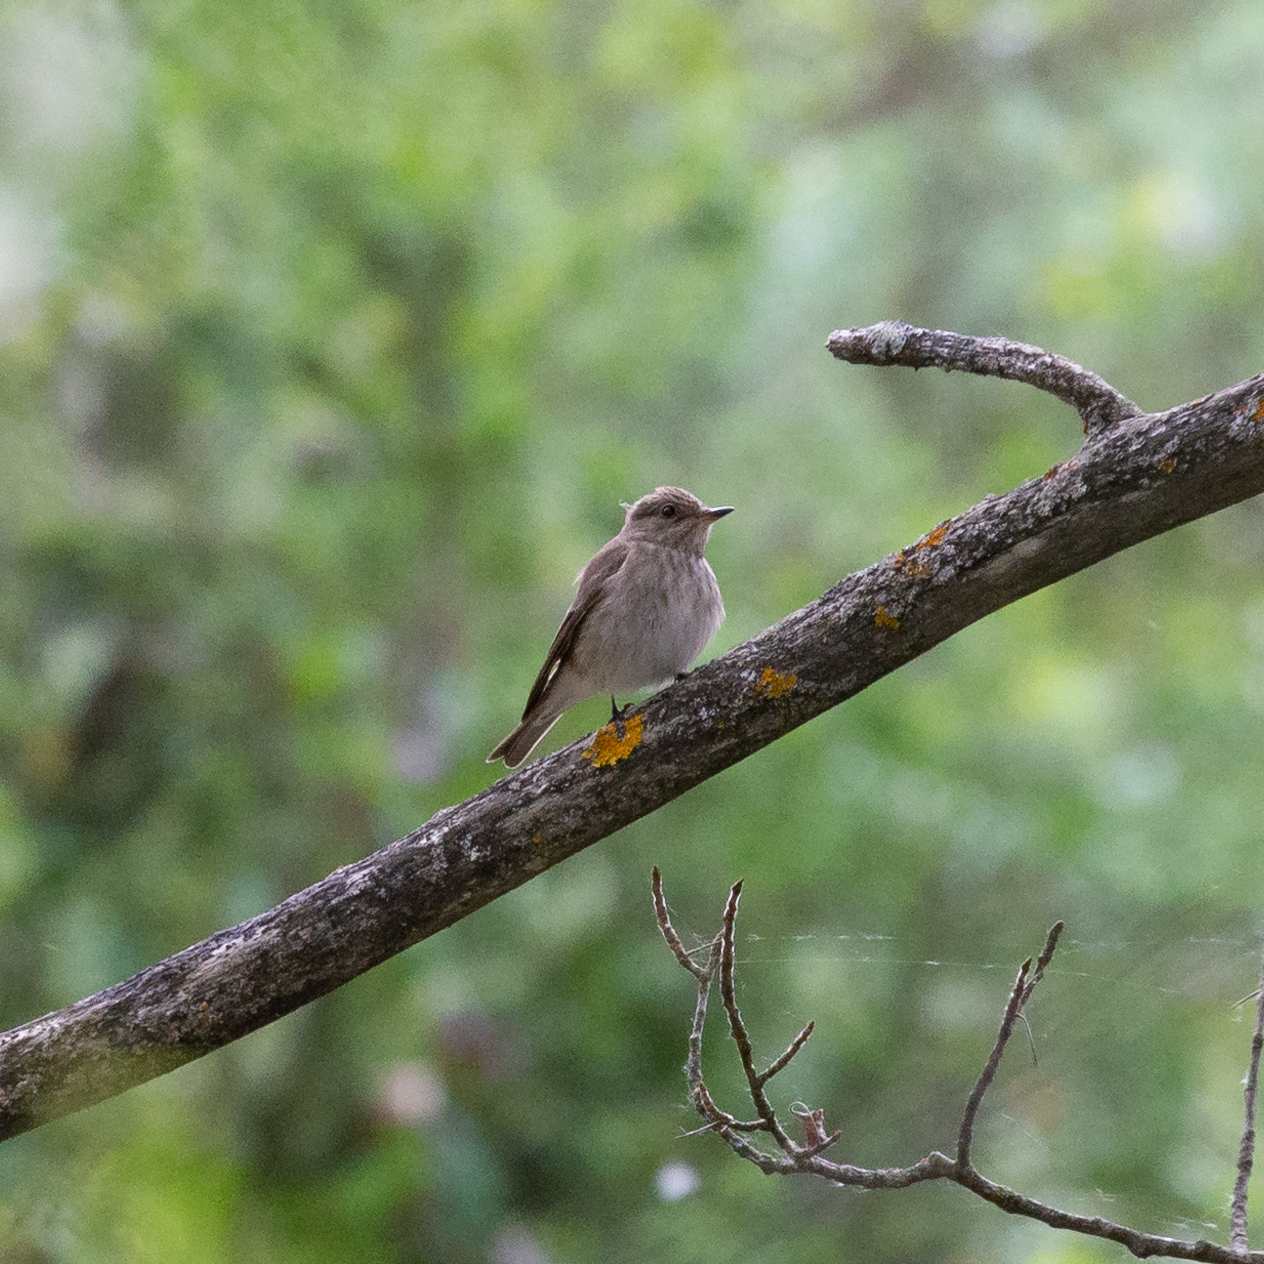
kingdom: Animalia
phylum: Chordata
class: Aves
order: Passeriformes
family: Muscicapidae
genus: Muscicapa
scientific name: Muscicapa striata
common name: Spotted flycatcher
